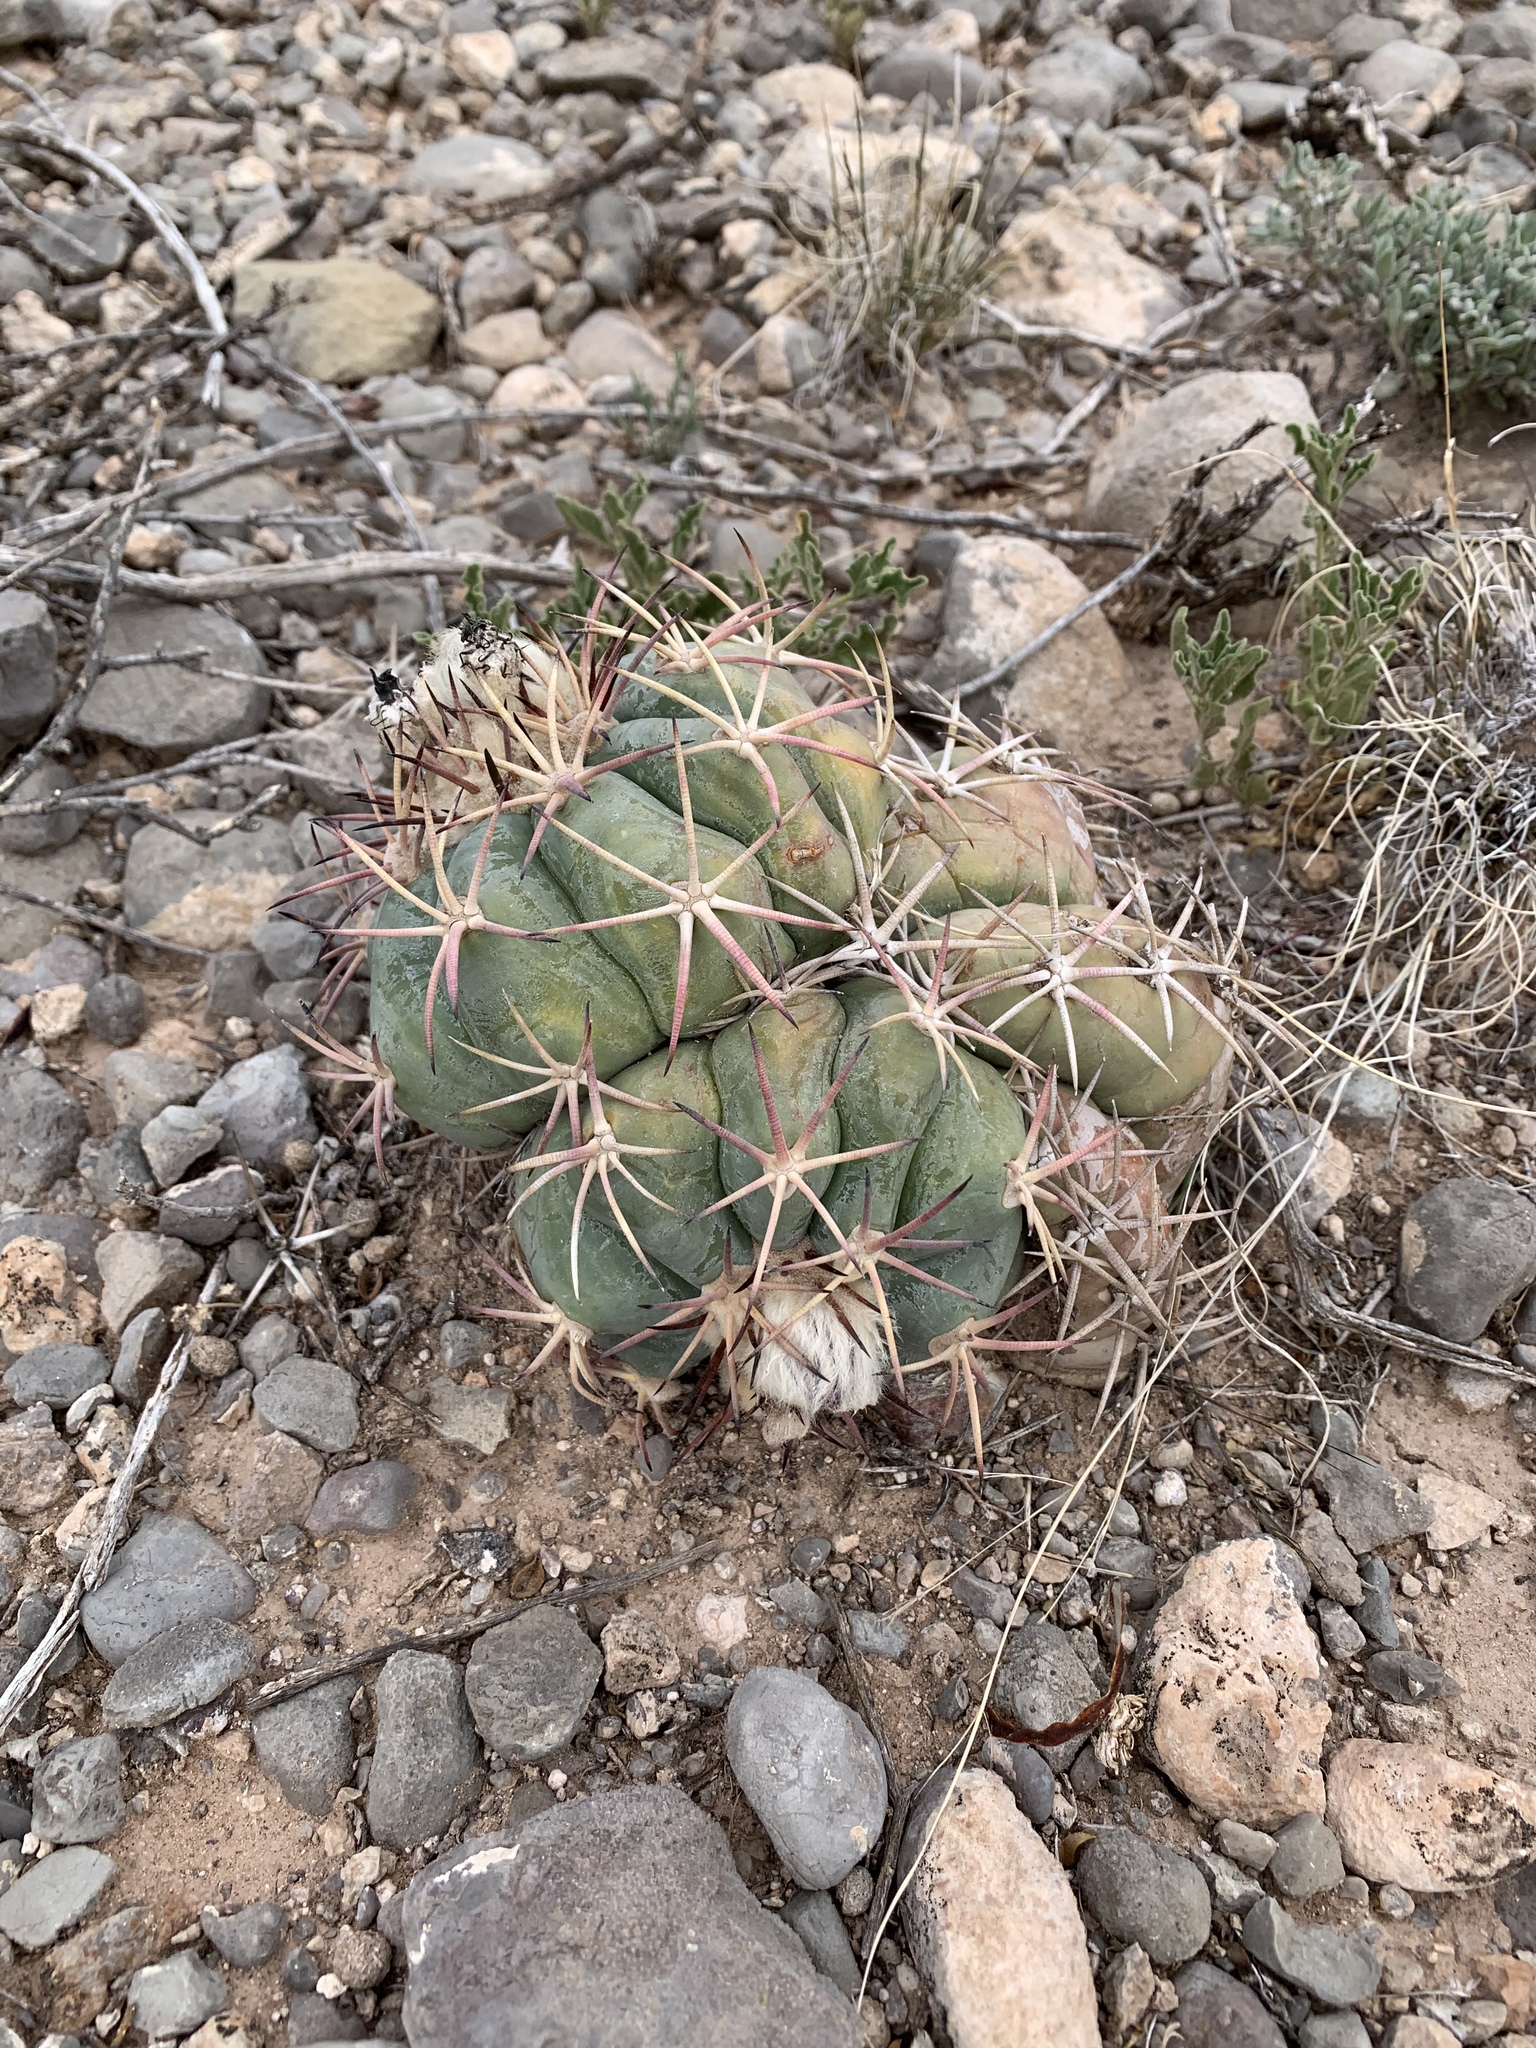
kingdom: Plantae
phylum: Tracheophyta
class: Magnoliopsida
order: Caryophyllales
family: Cactaceae
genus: Echinocactus
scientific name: Echinocactus horizonthalonius
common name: Devilshead
